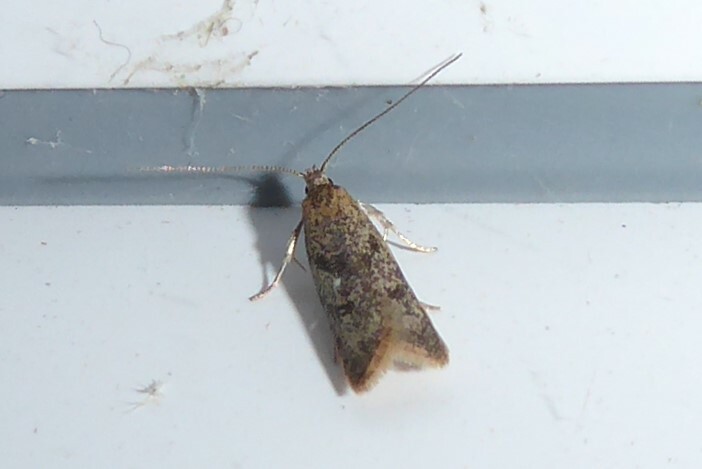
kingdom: Animalia
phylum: Arthropoda
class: Insecta
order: Lepidoptera
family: Oecophoridae
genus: Gymnobathra
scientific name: Gymnobathra tholodella
